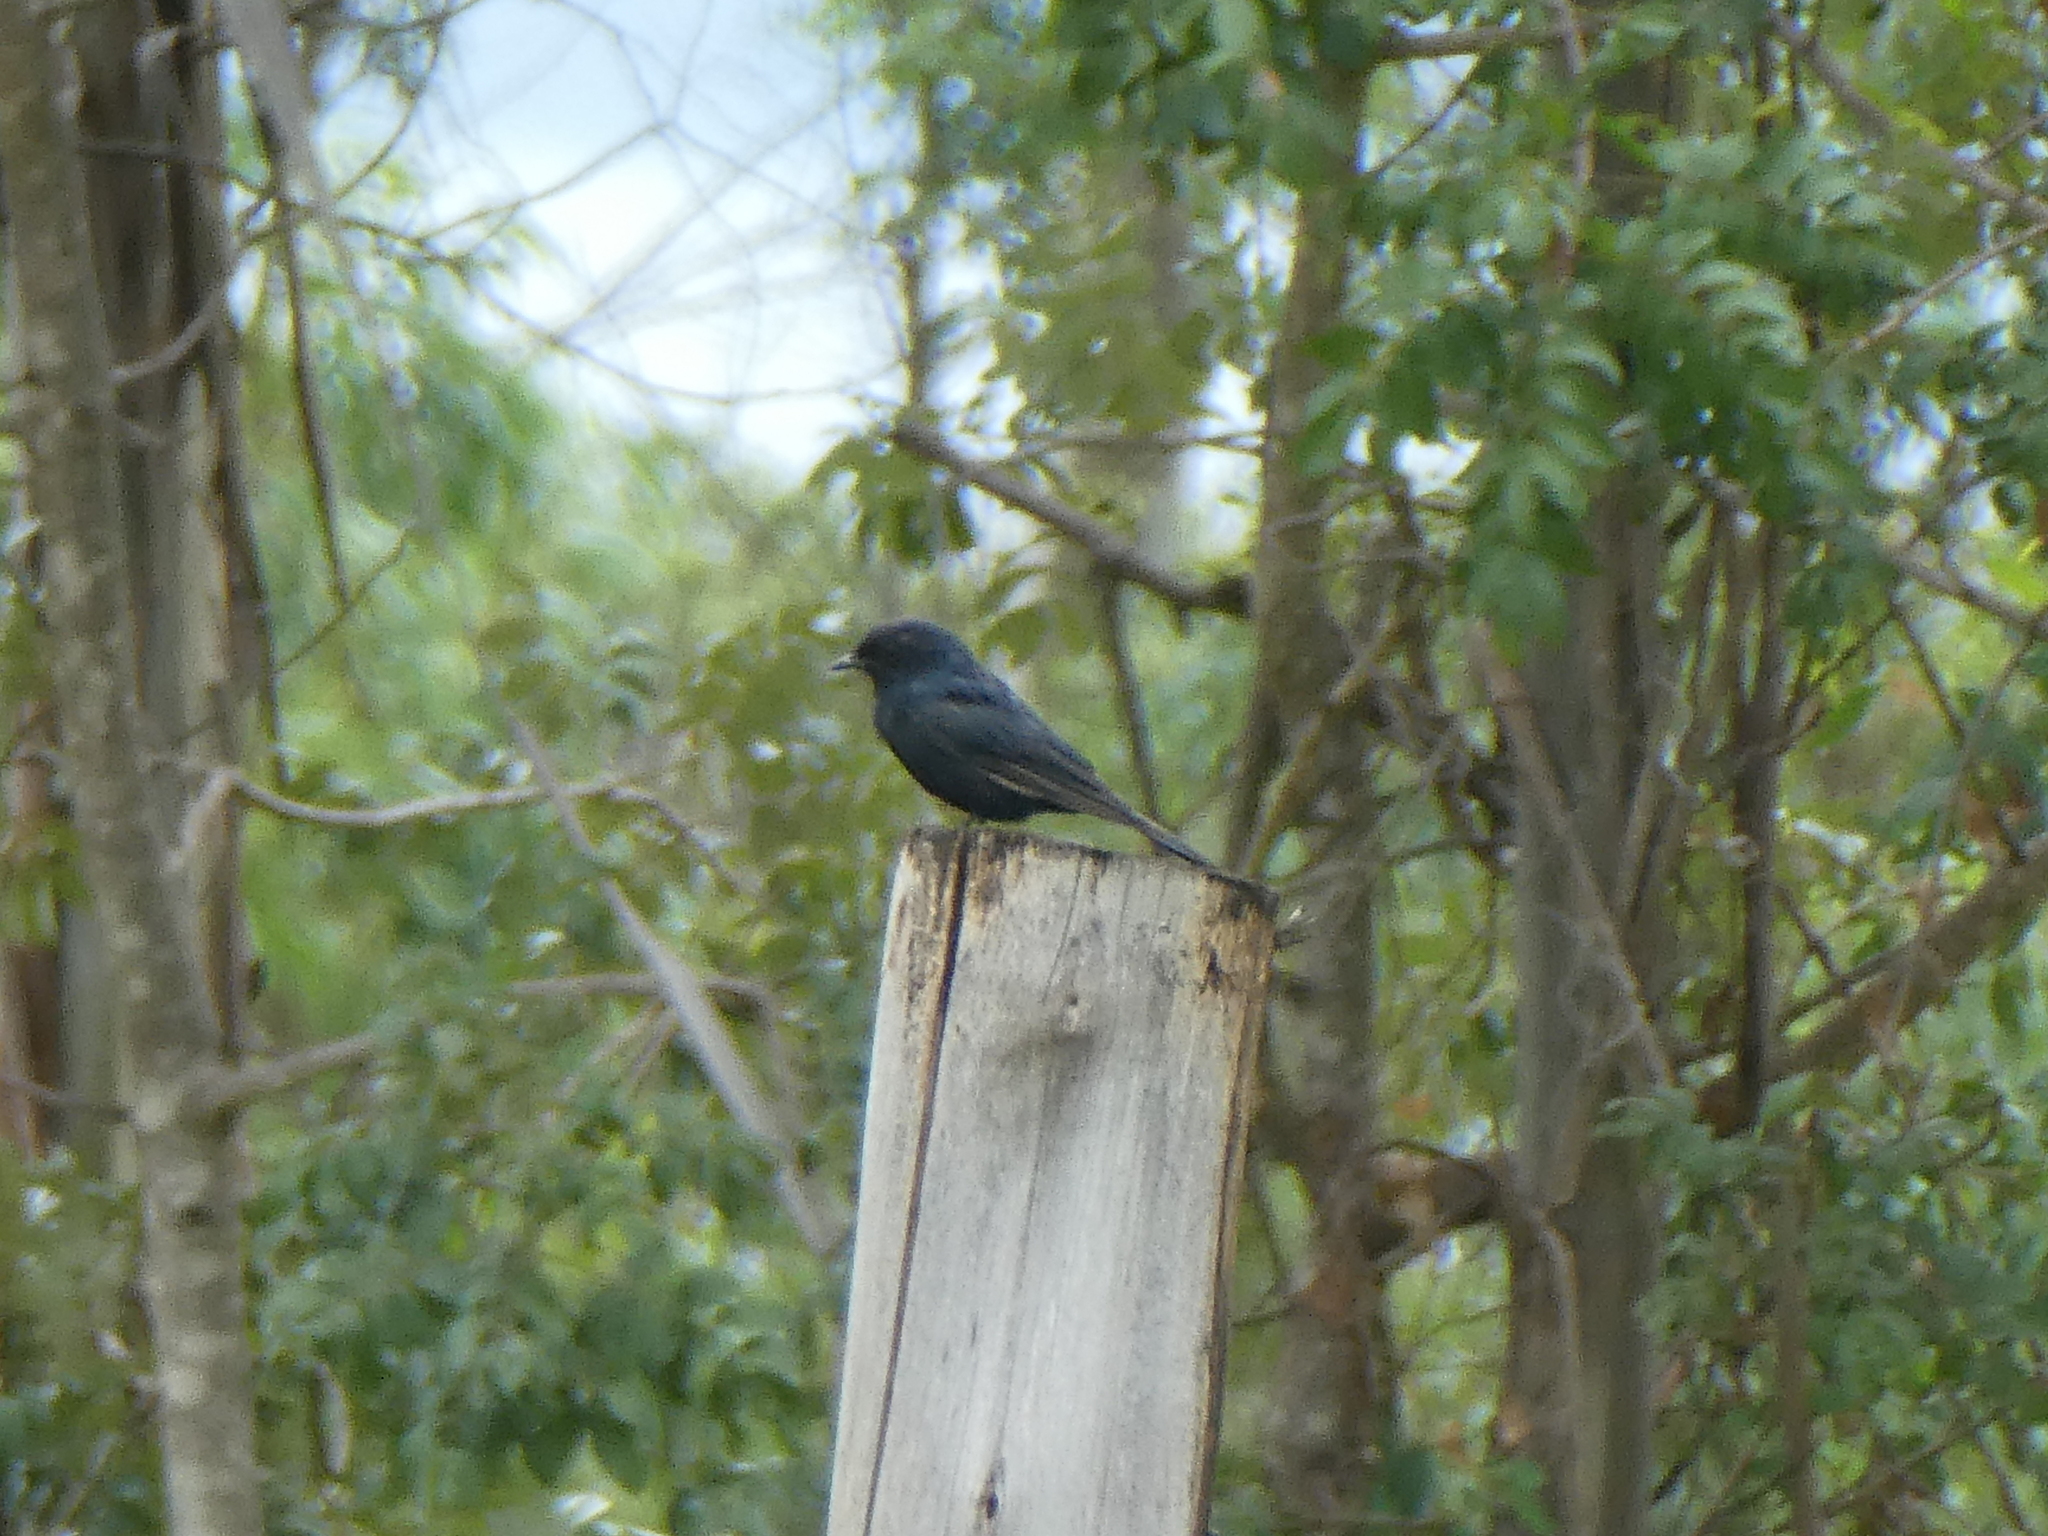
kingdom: Animalia
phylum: Chordata
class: Aves
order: Passeriformes
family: Muscicapidae
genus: Melaenornis
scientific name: Melaenornis pammelaina
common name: Southern black flycatcher
